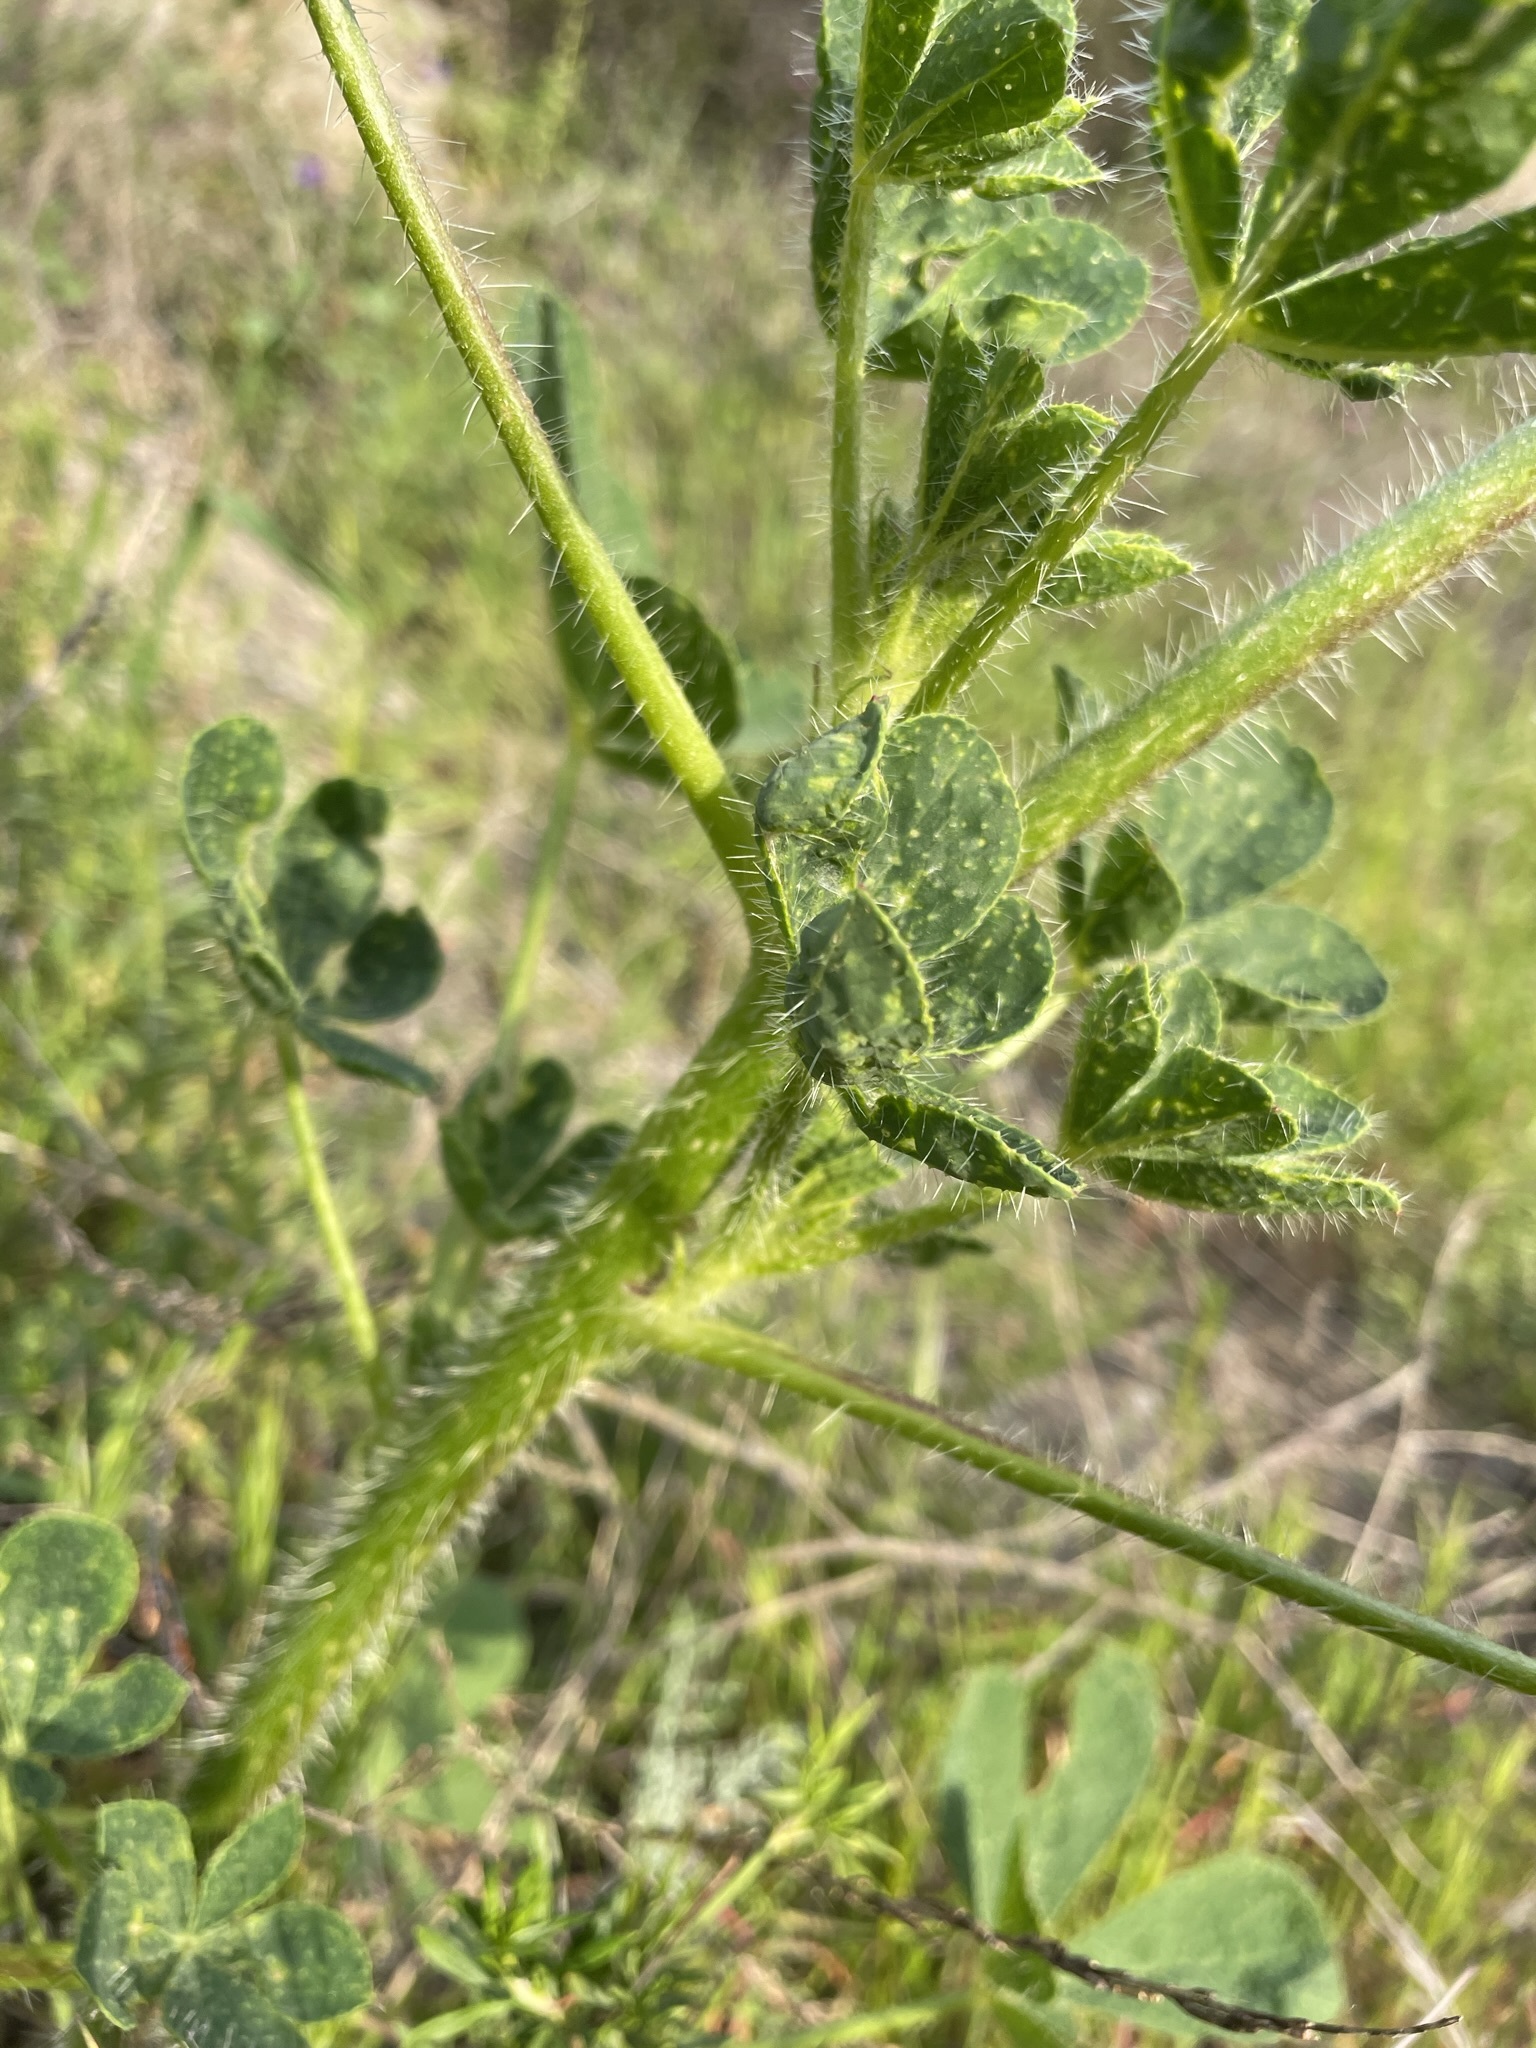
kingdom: Plantae
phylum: Tracheophyta
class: Magnoliopsida
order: Fabales
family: Fabaceae
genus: Lupinus
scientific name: Lupinus hirsutissimus
